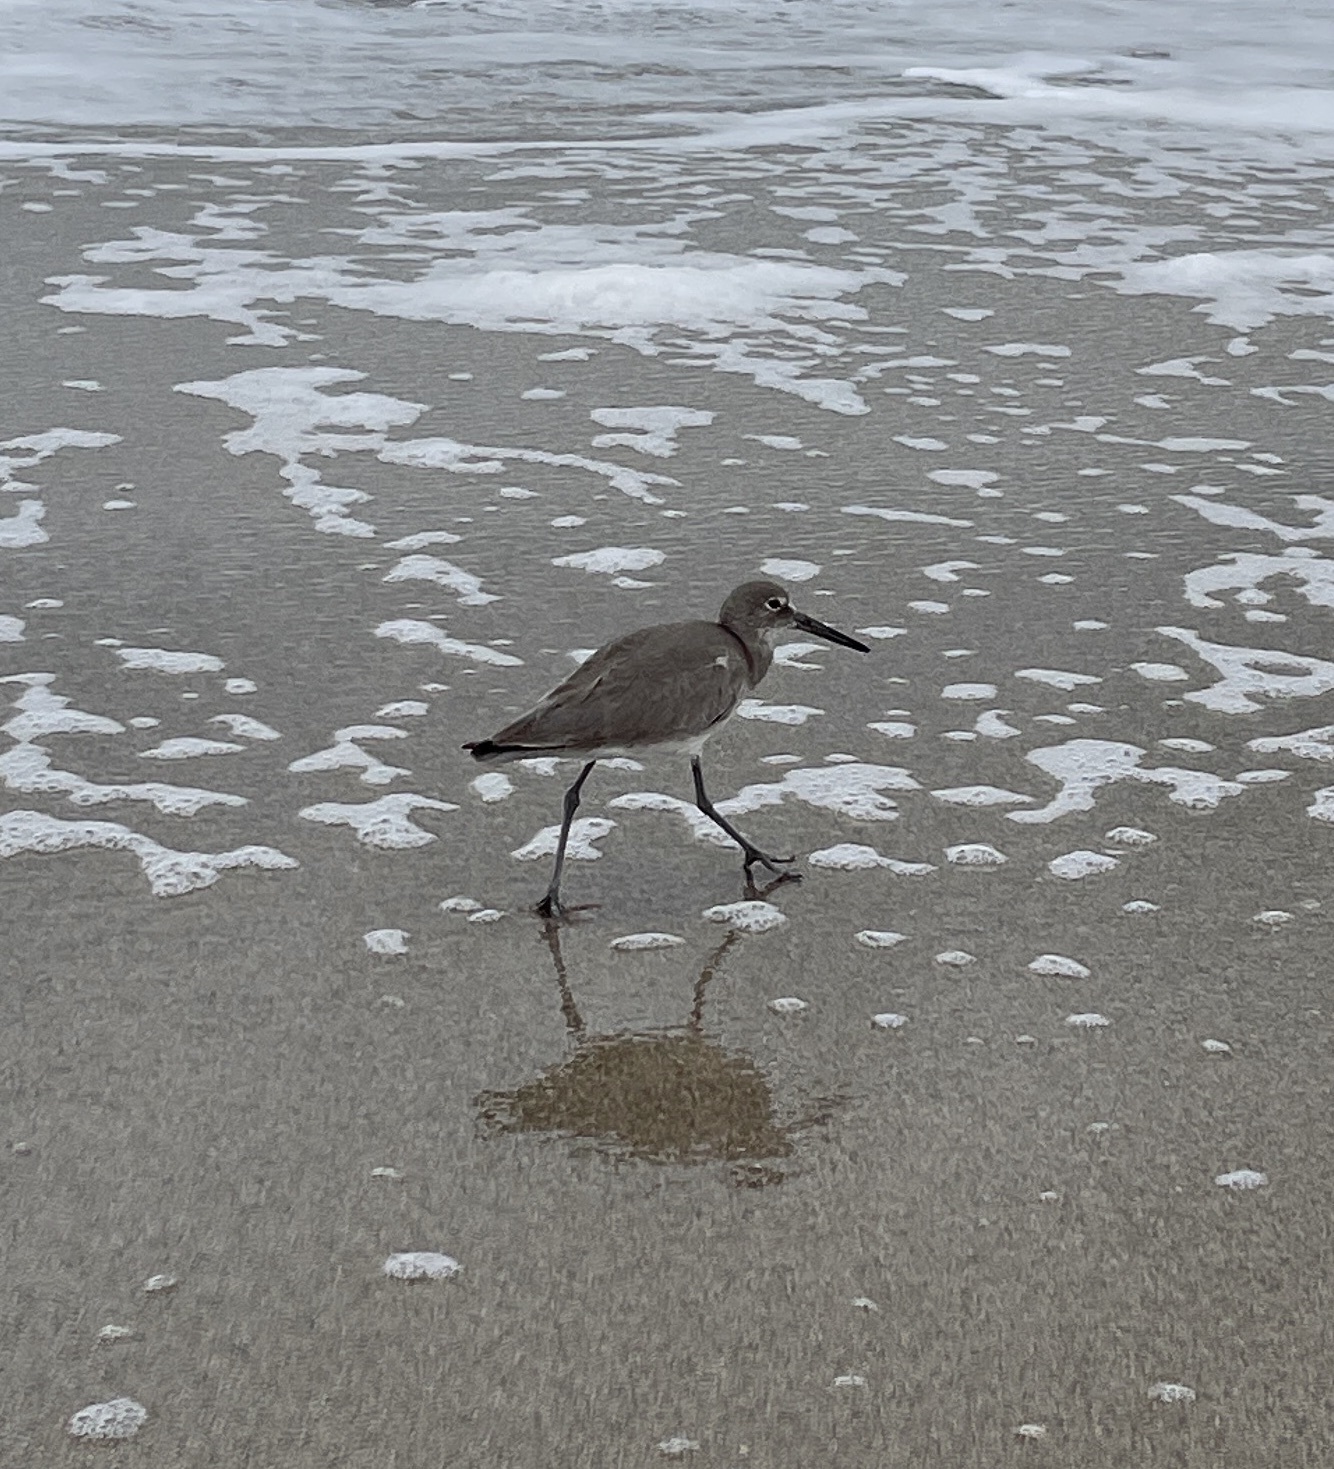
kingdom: Animalia
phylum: Chordata
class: Aves
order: Charadriiformes
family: Scolopacidae
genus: Tringa
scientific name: Tringa semipalmata
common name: Willet
